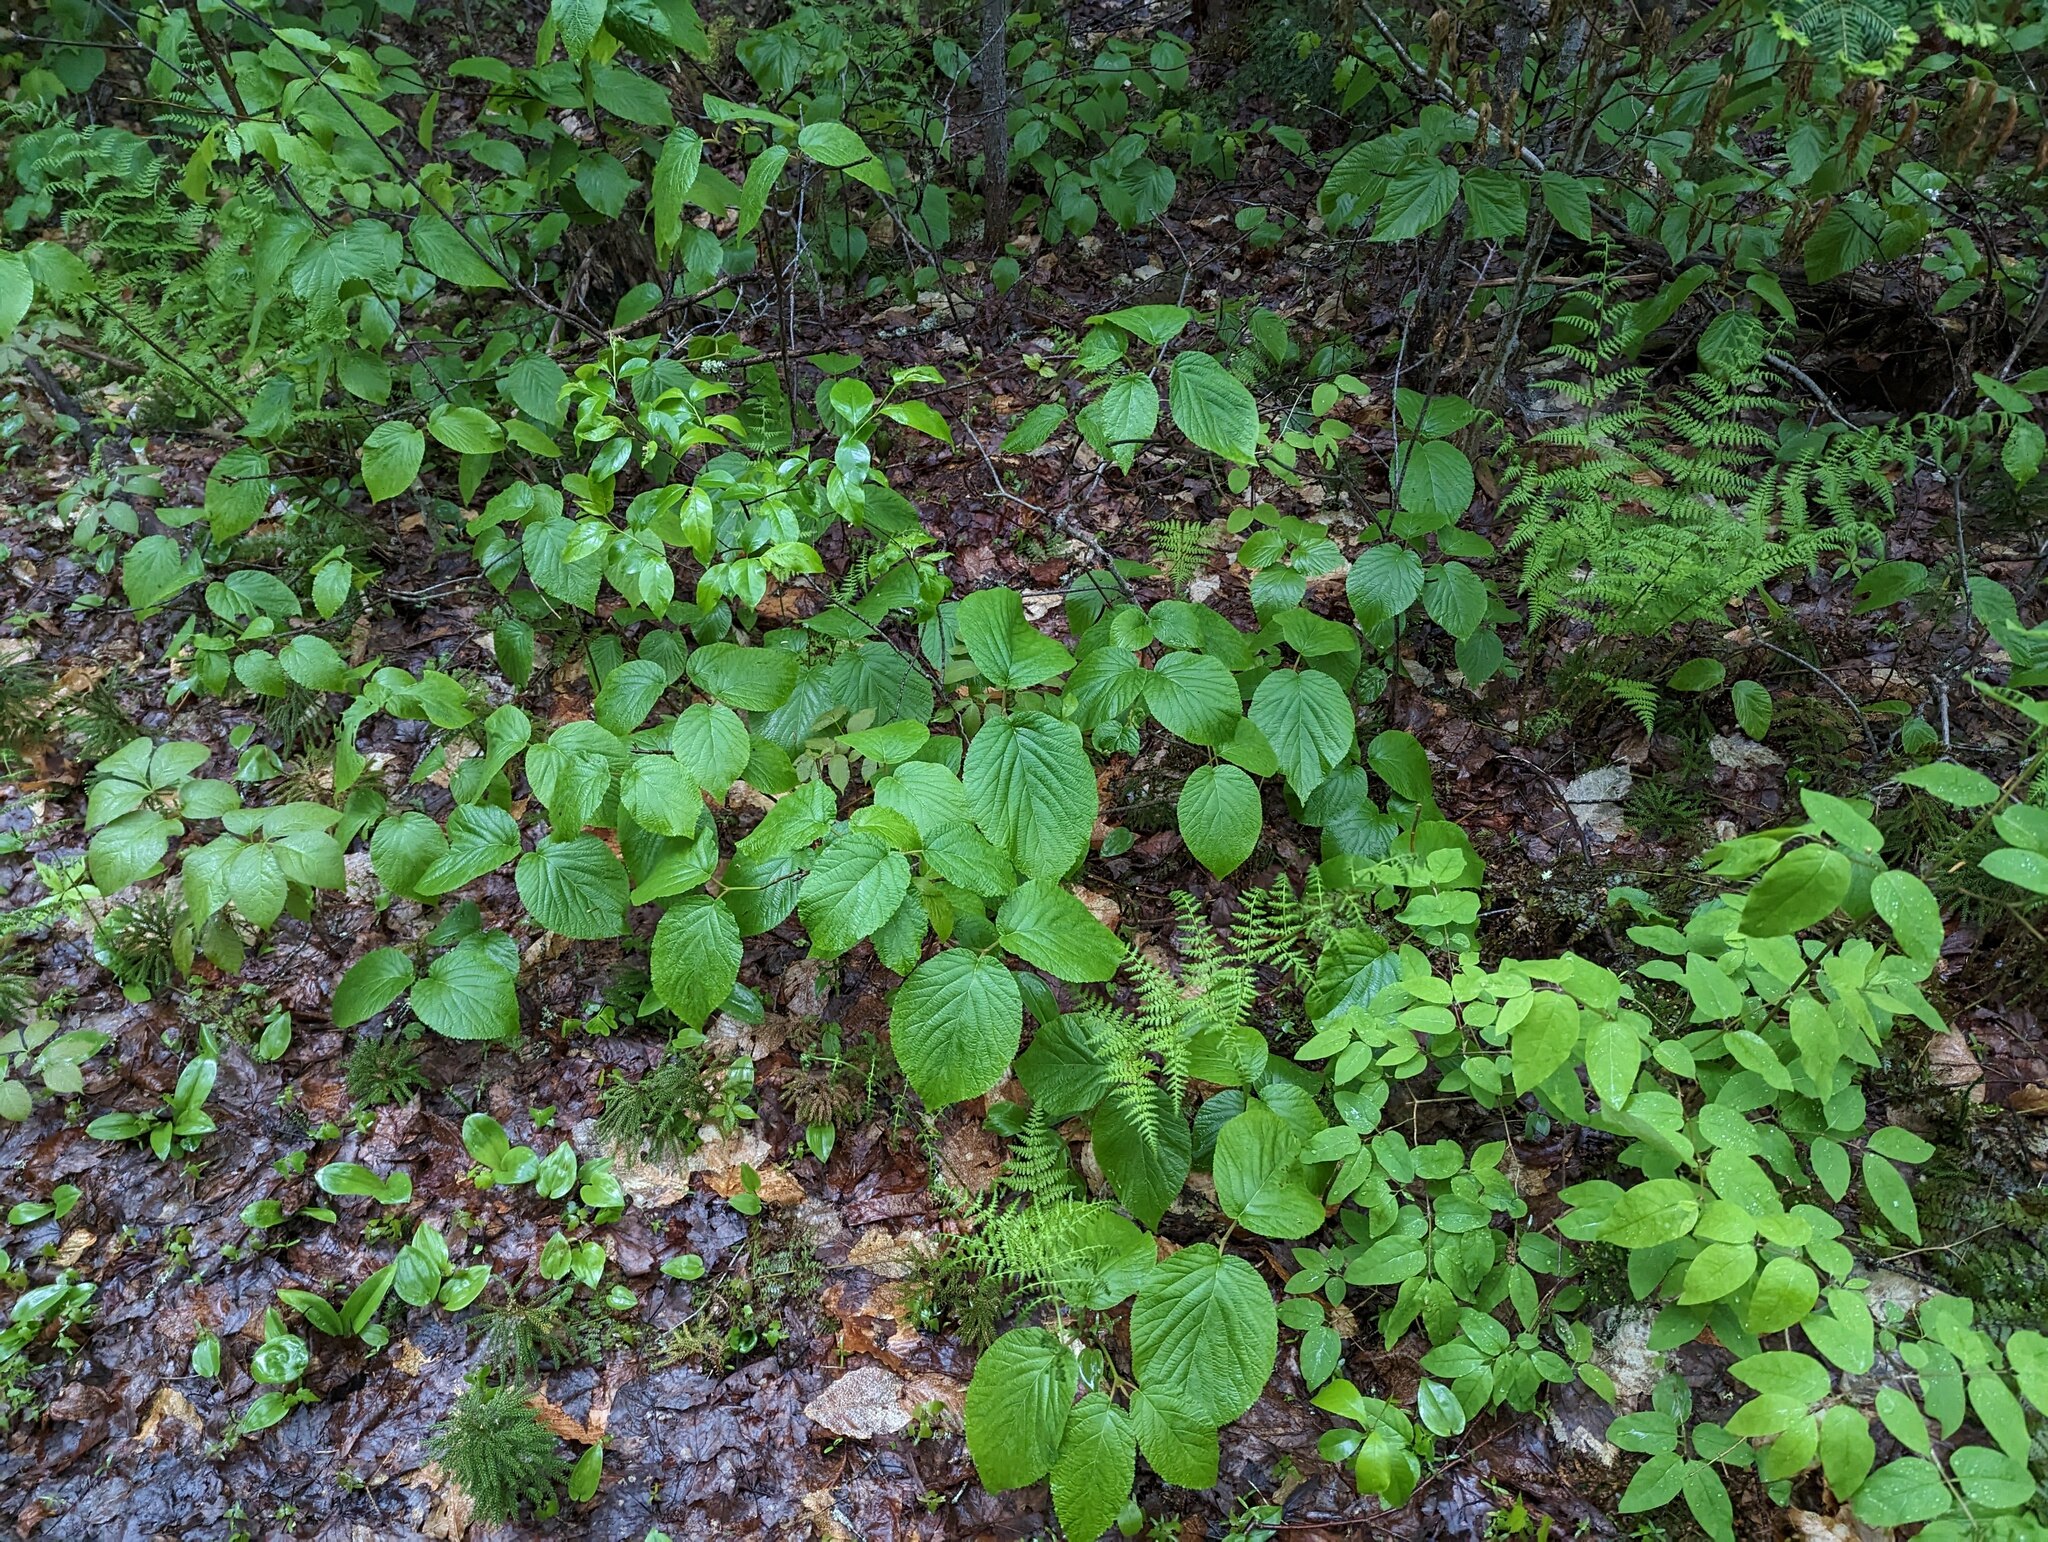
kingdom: Plantae
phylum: Tracheophyta
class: Magnoliopsida
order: Dipsacales
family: Viburnaceae
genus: Viburnum
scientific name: Viburnum lantanoides
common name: Hobblebush
